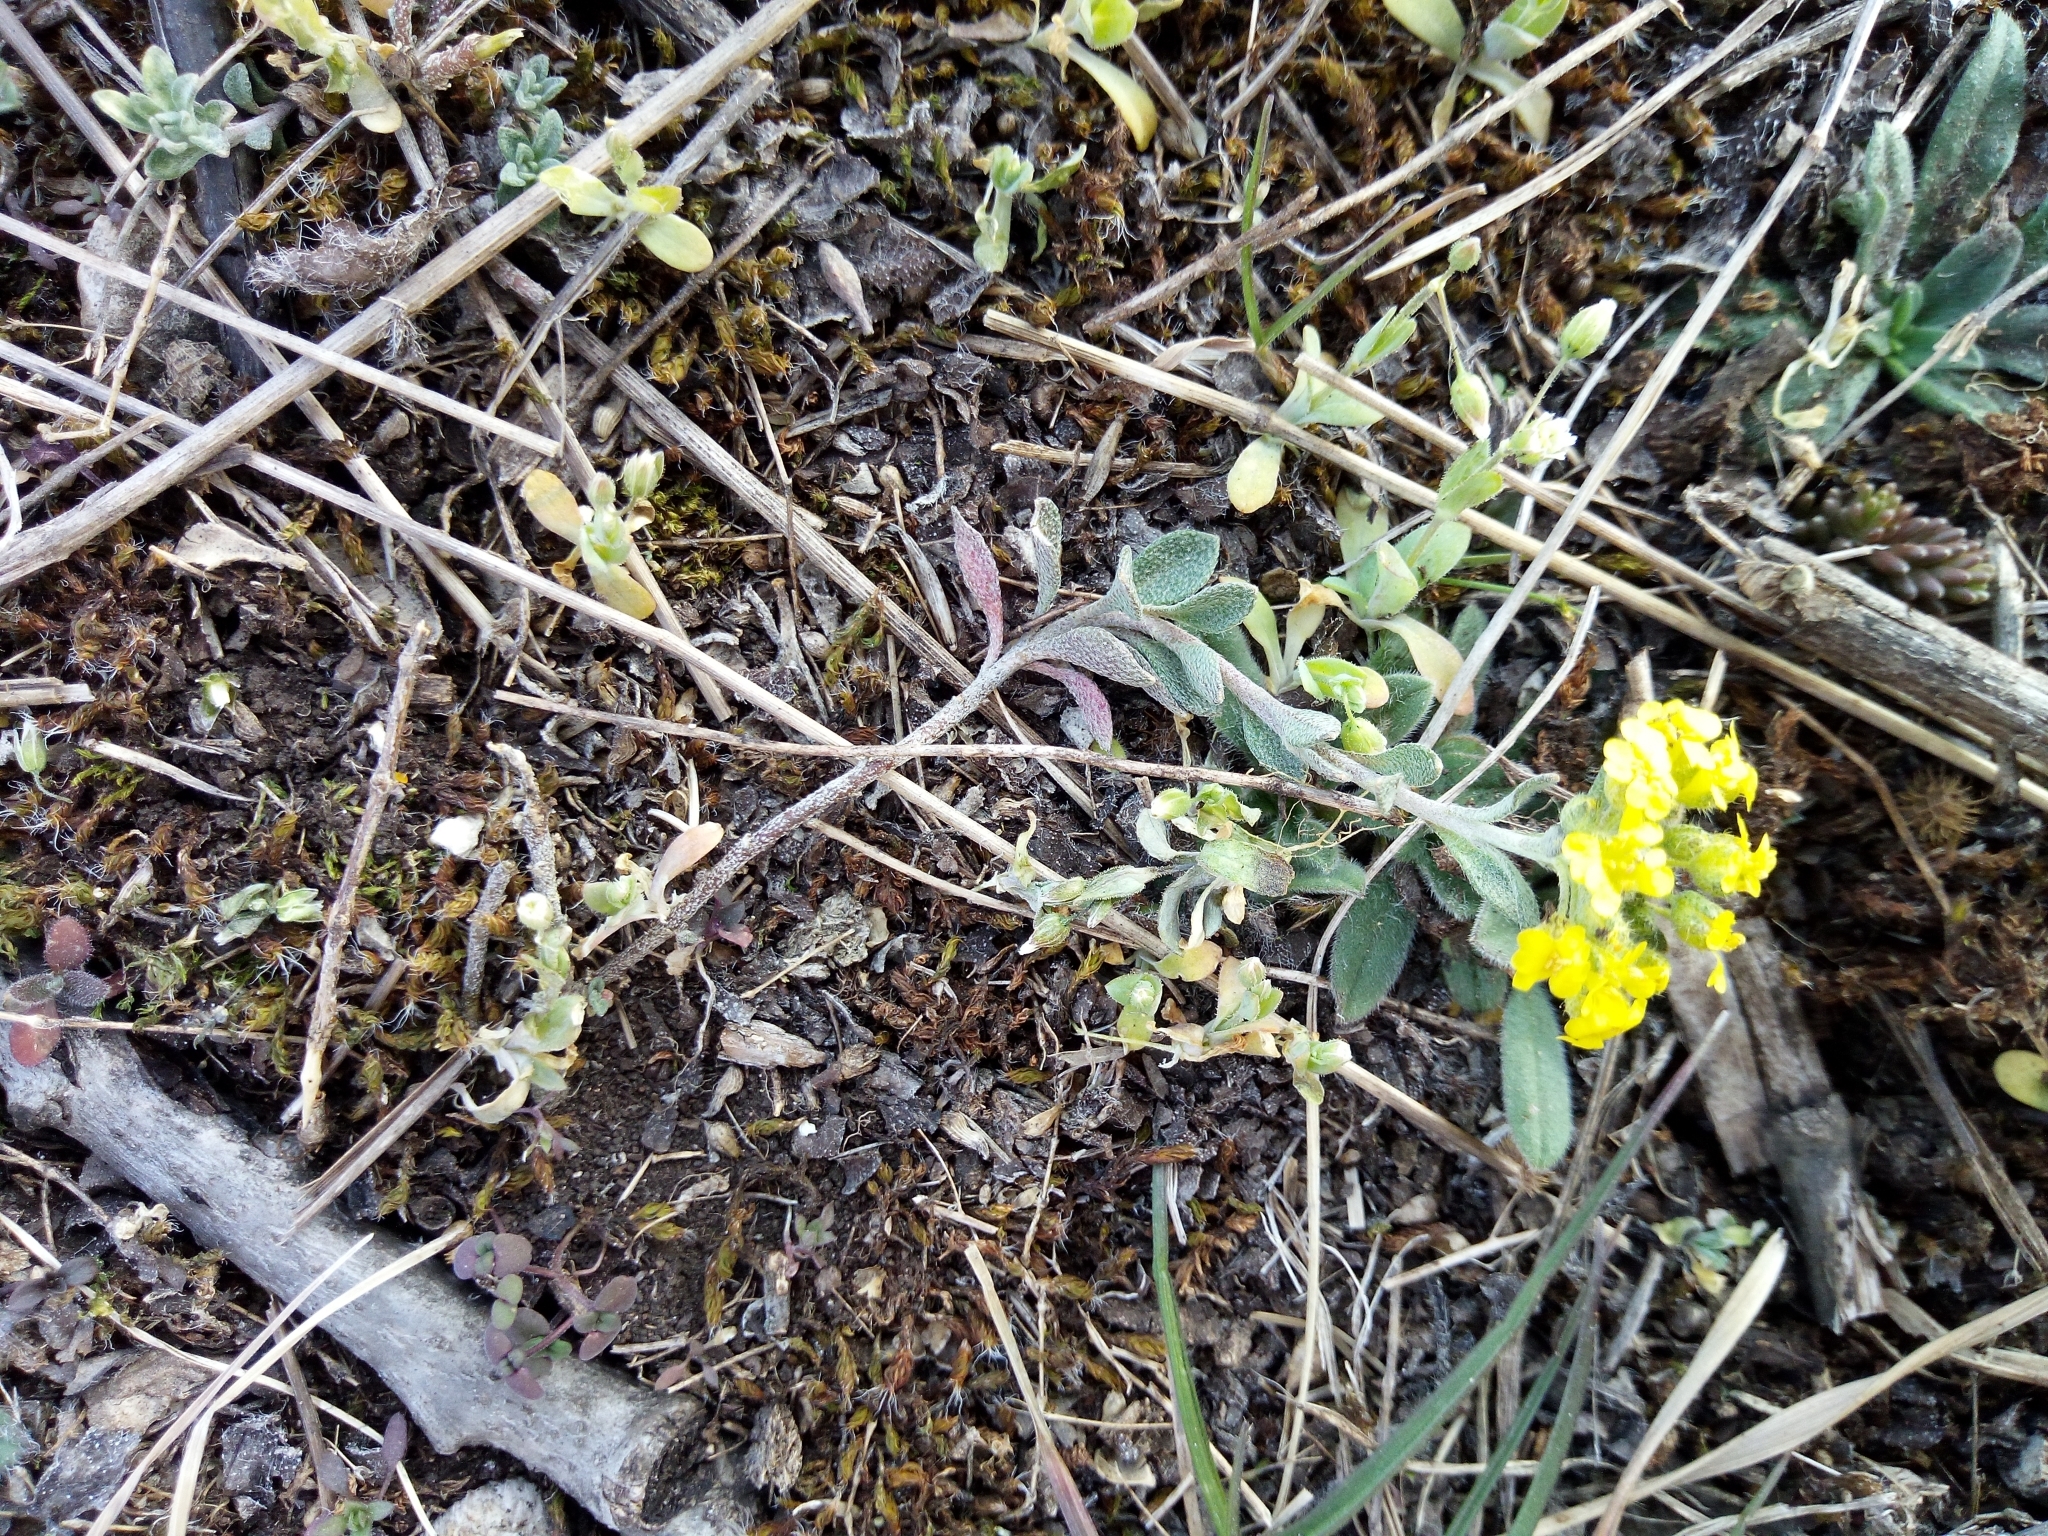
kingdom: Plantae
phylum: Tracheophyta
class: Magnoliopsida
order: Brassicales
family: Brassicaceae
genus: Alyssum
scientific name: Alyssum gmelinii
